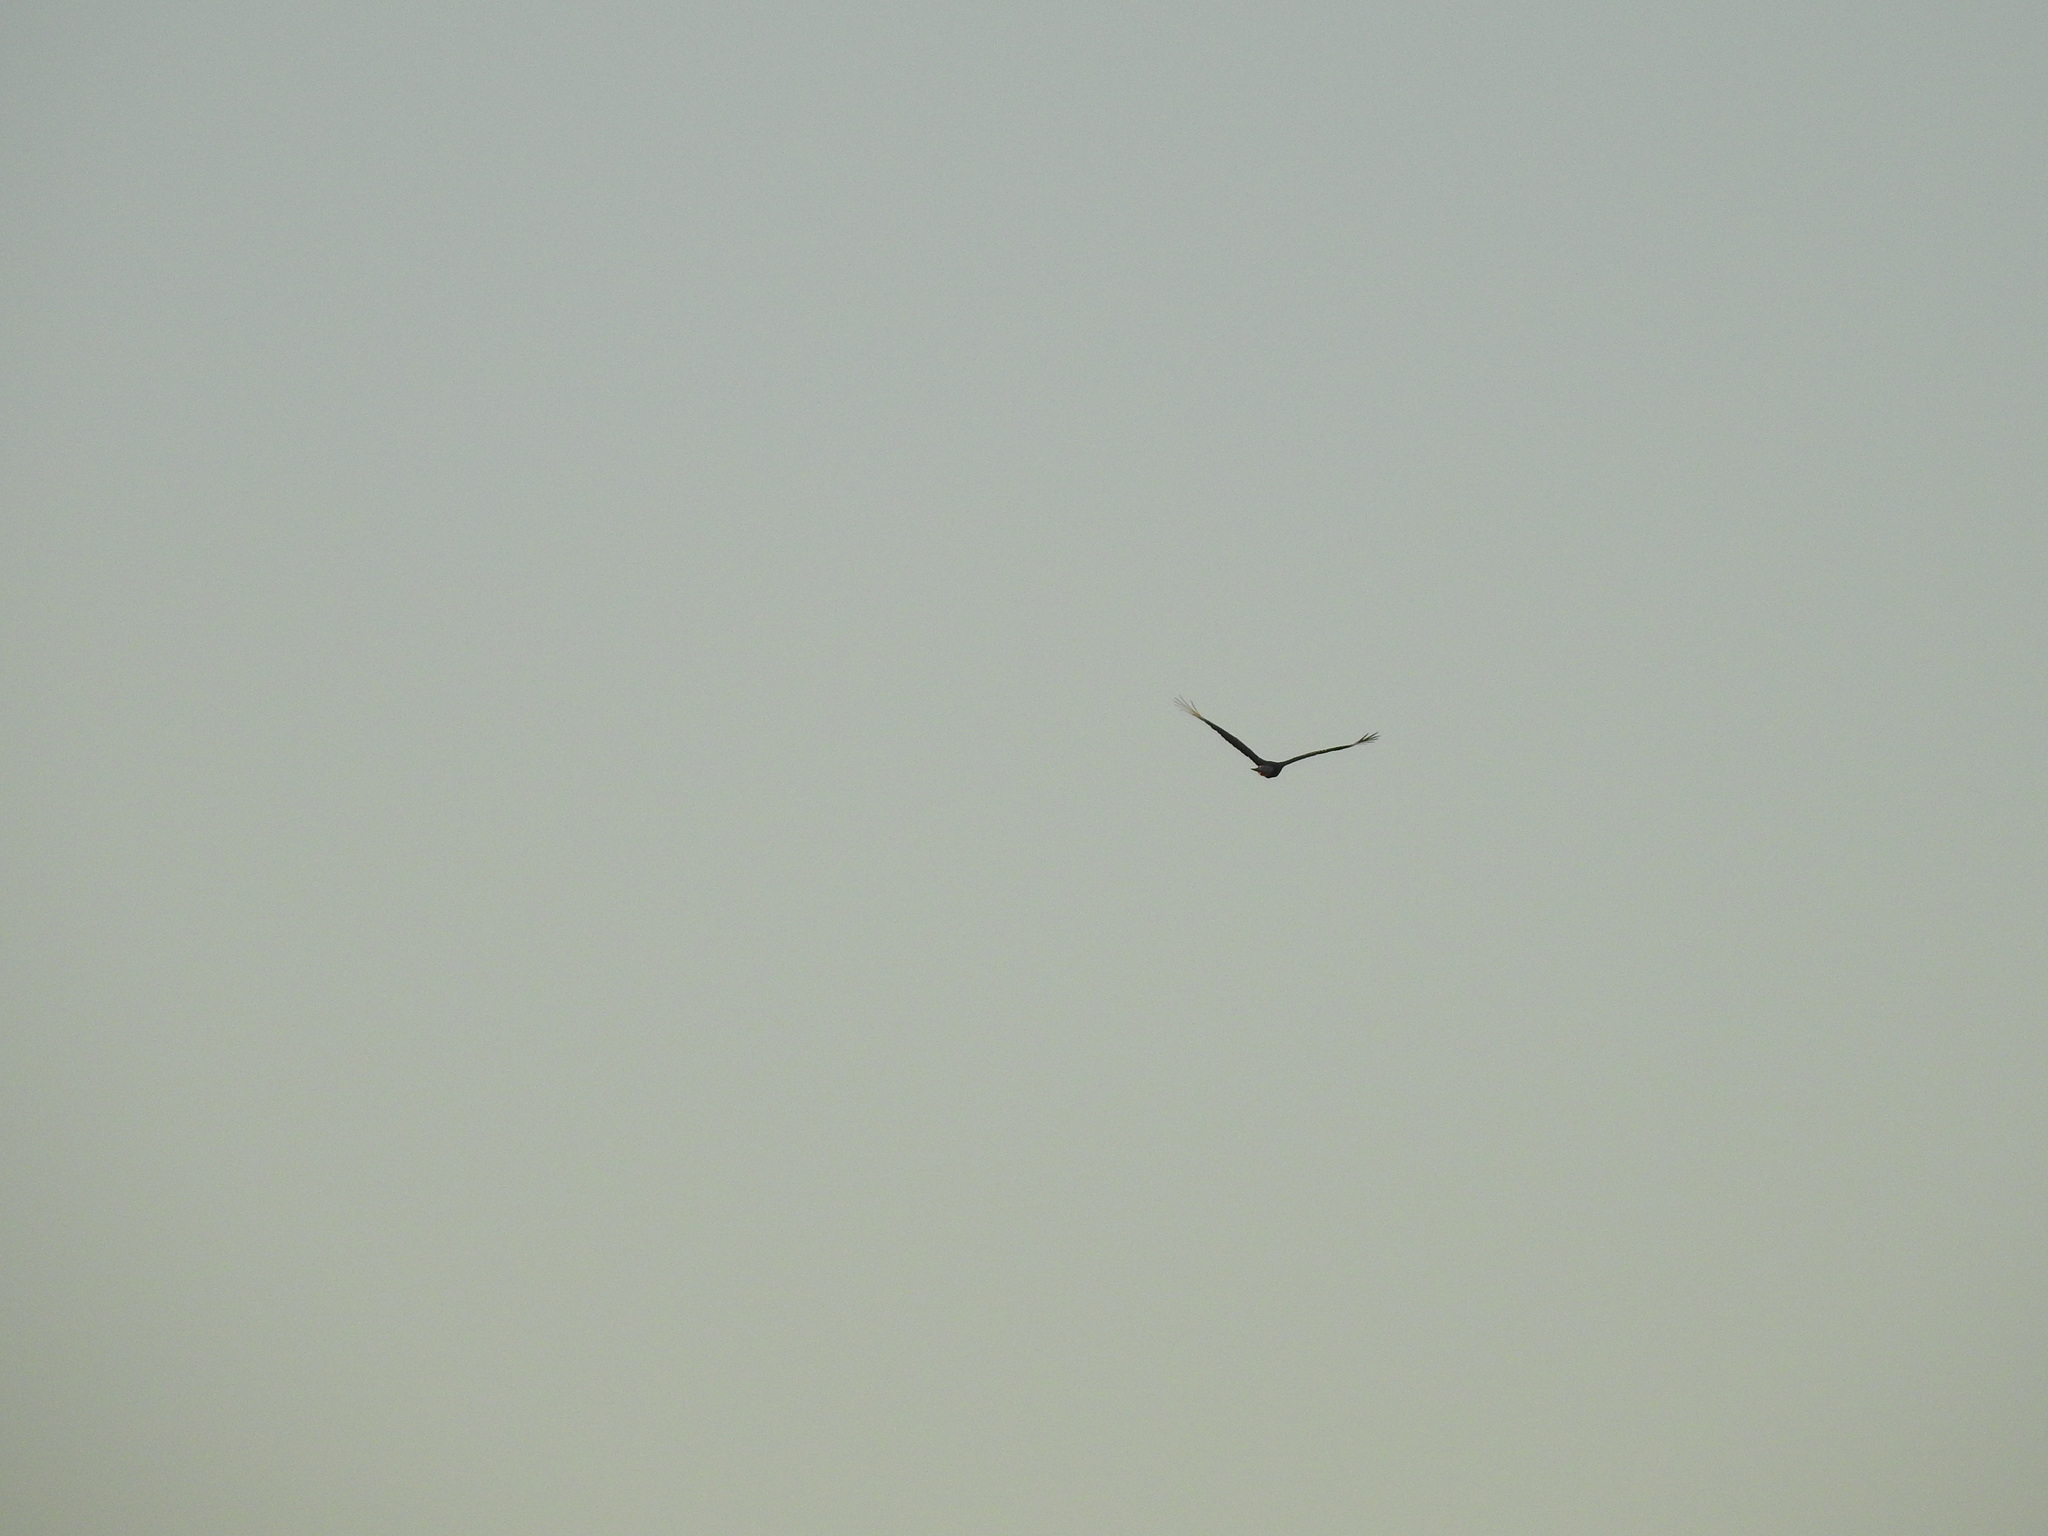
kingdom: Animalia
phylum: Chordata
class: Aves
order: Falconiformes
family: Falconidae
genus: Caracara
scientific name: Caracara plancus
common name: Southern caracara
